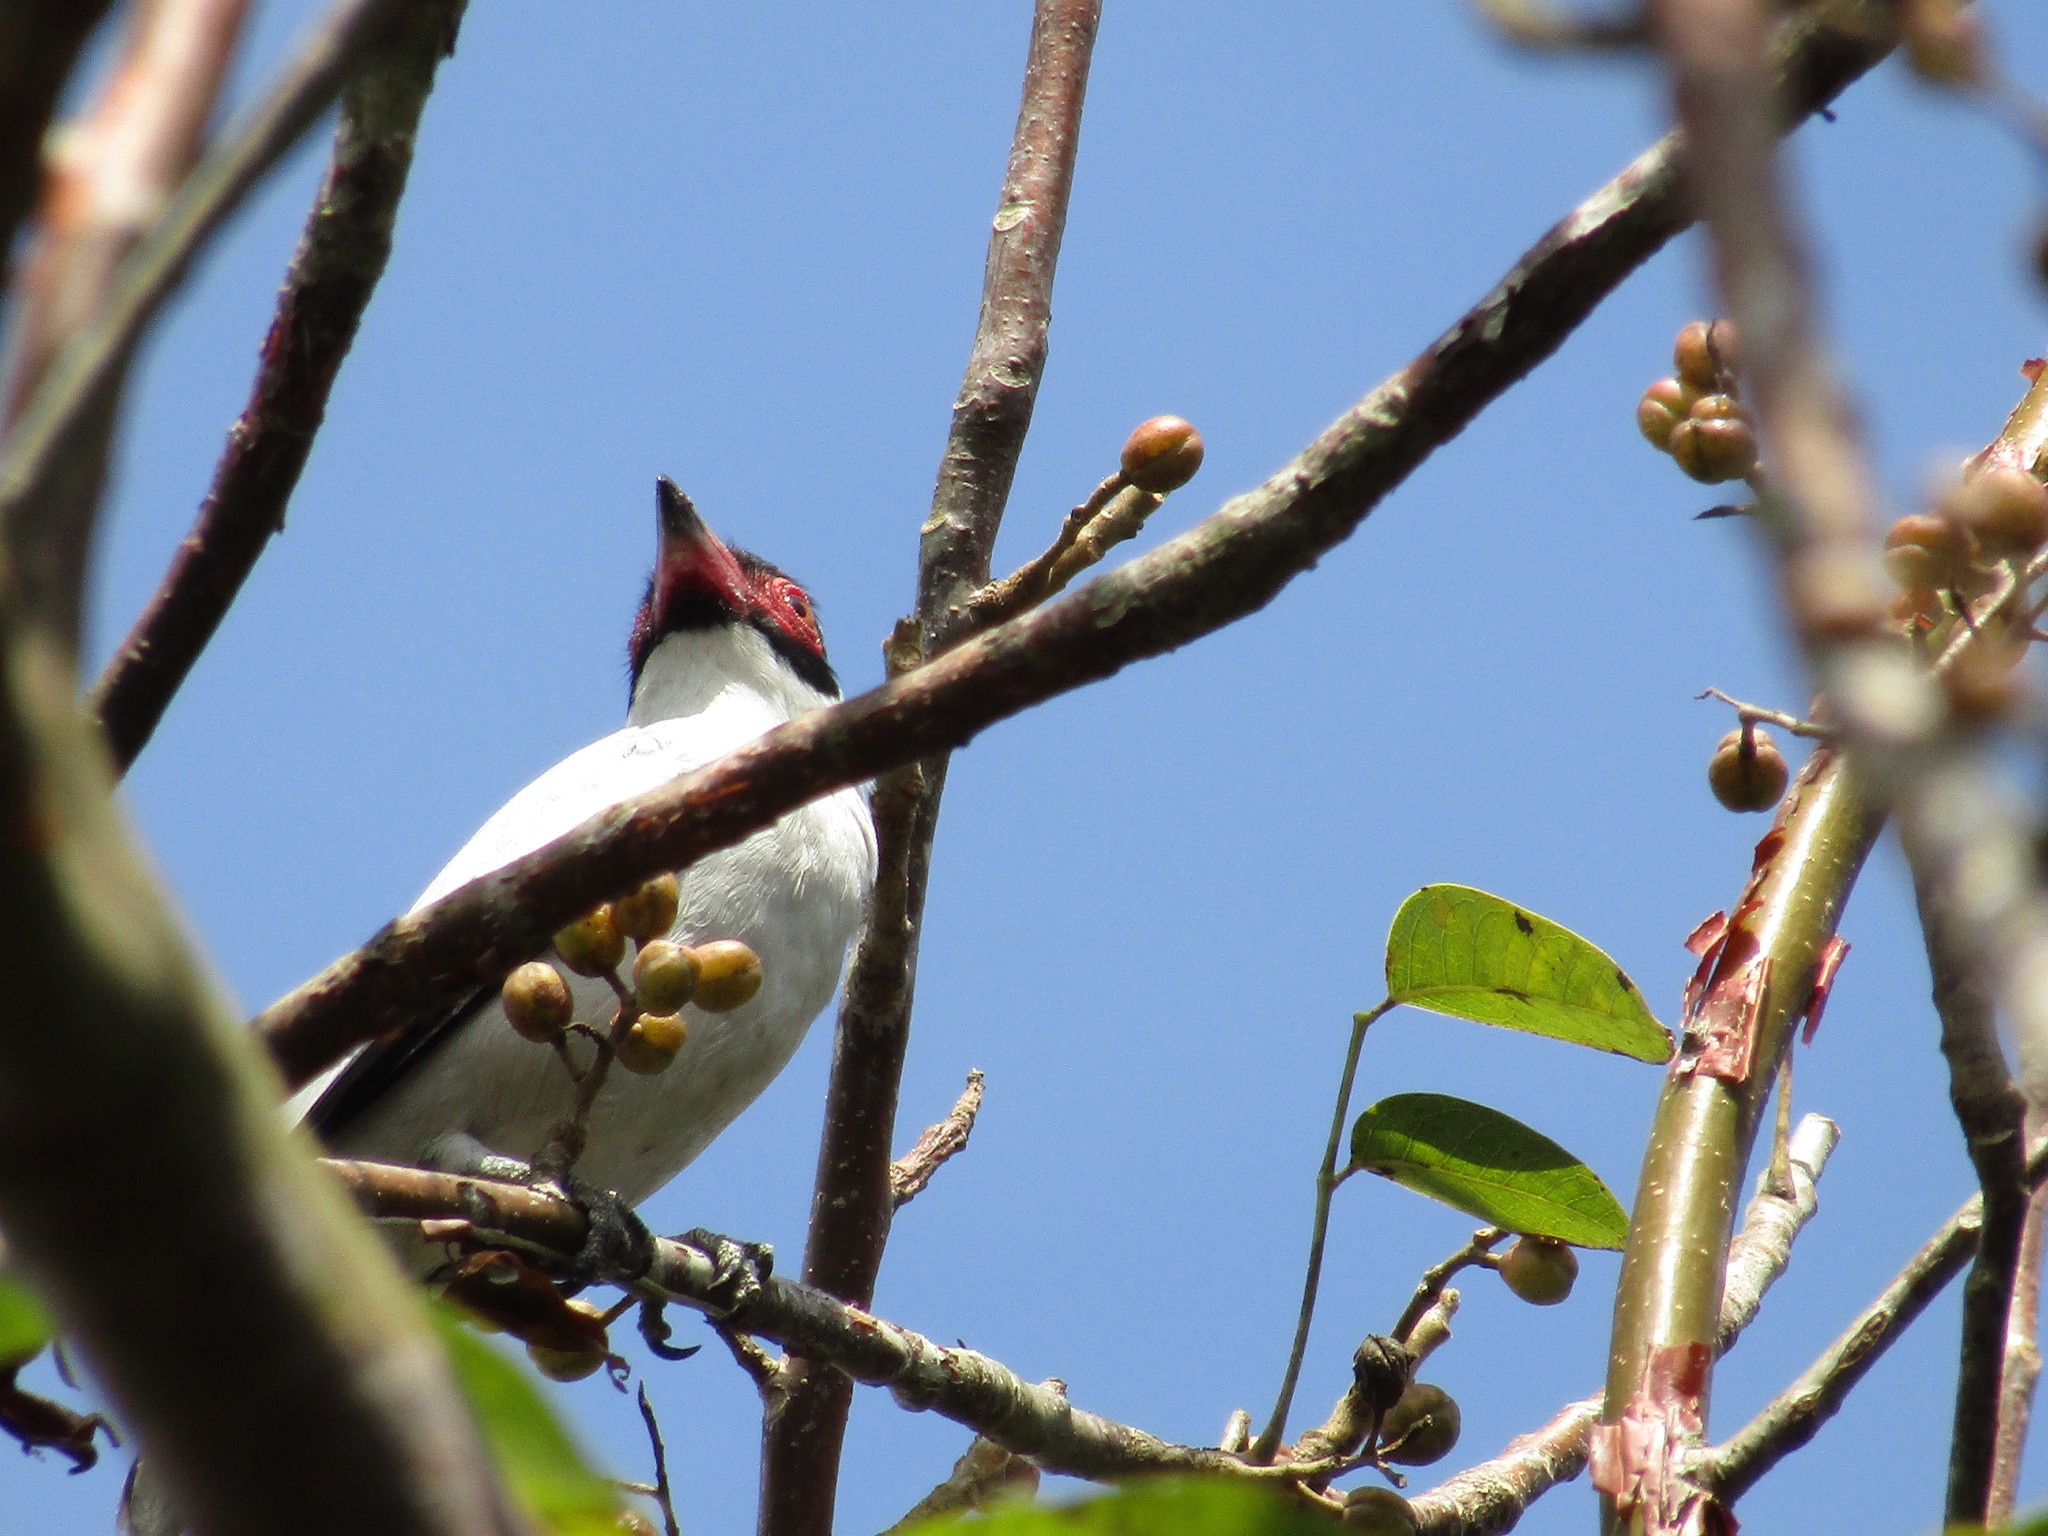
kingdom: Animalia
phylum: Chordata
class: Aves
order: Passeriformes
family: Cotingidae
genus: Tityra
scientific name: Tityra semifasciata
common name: Masked tityra
